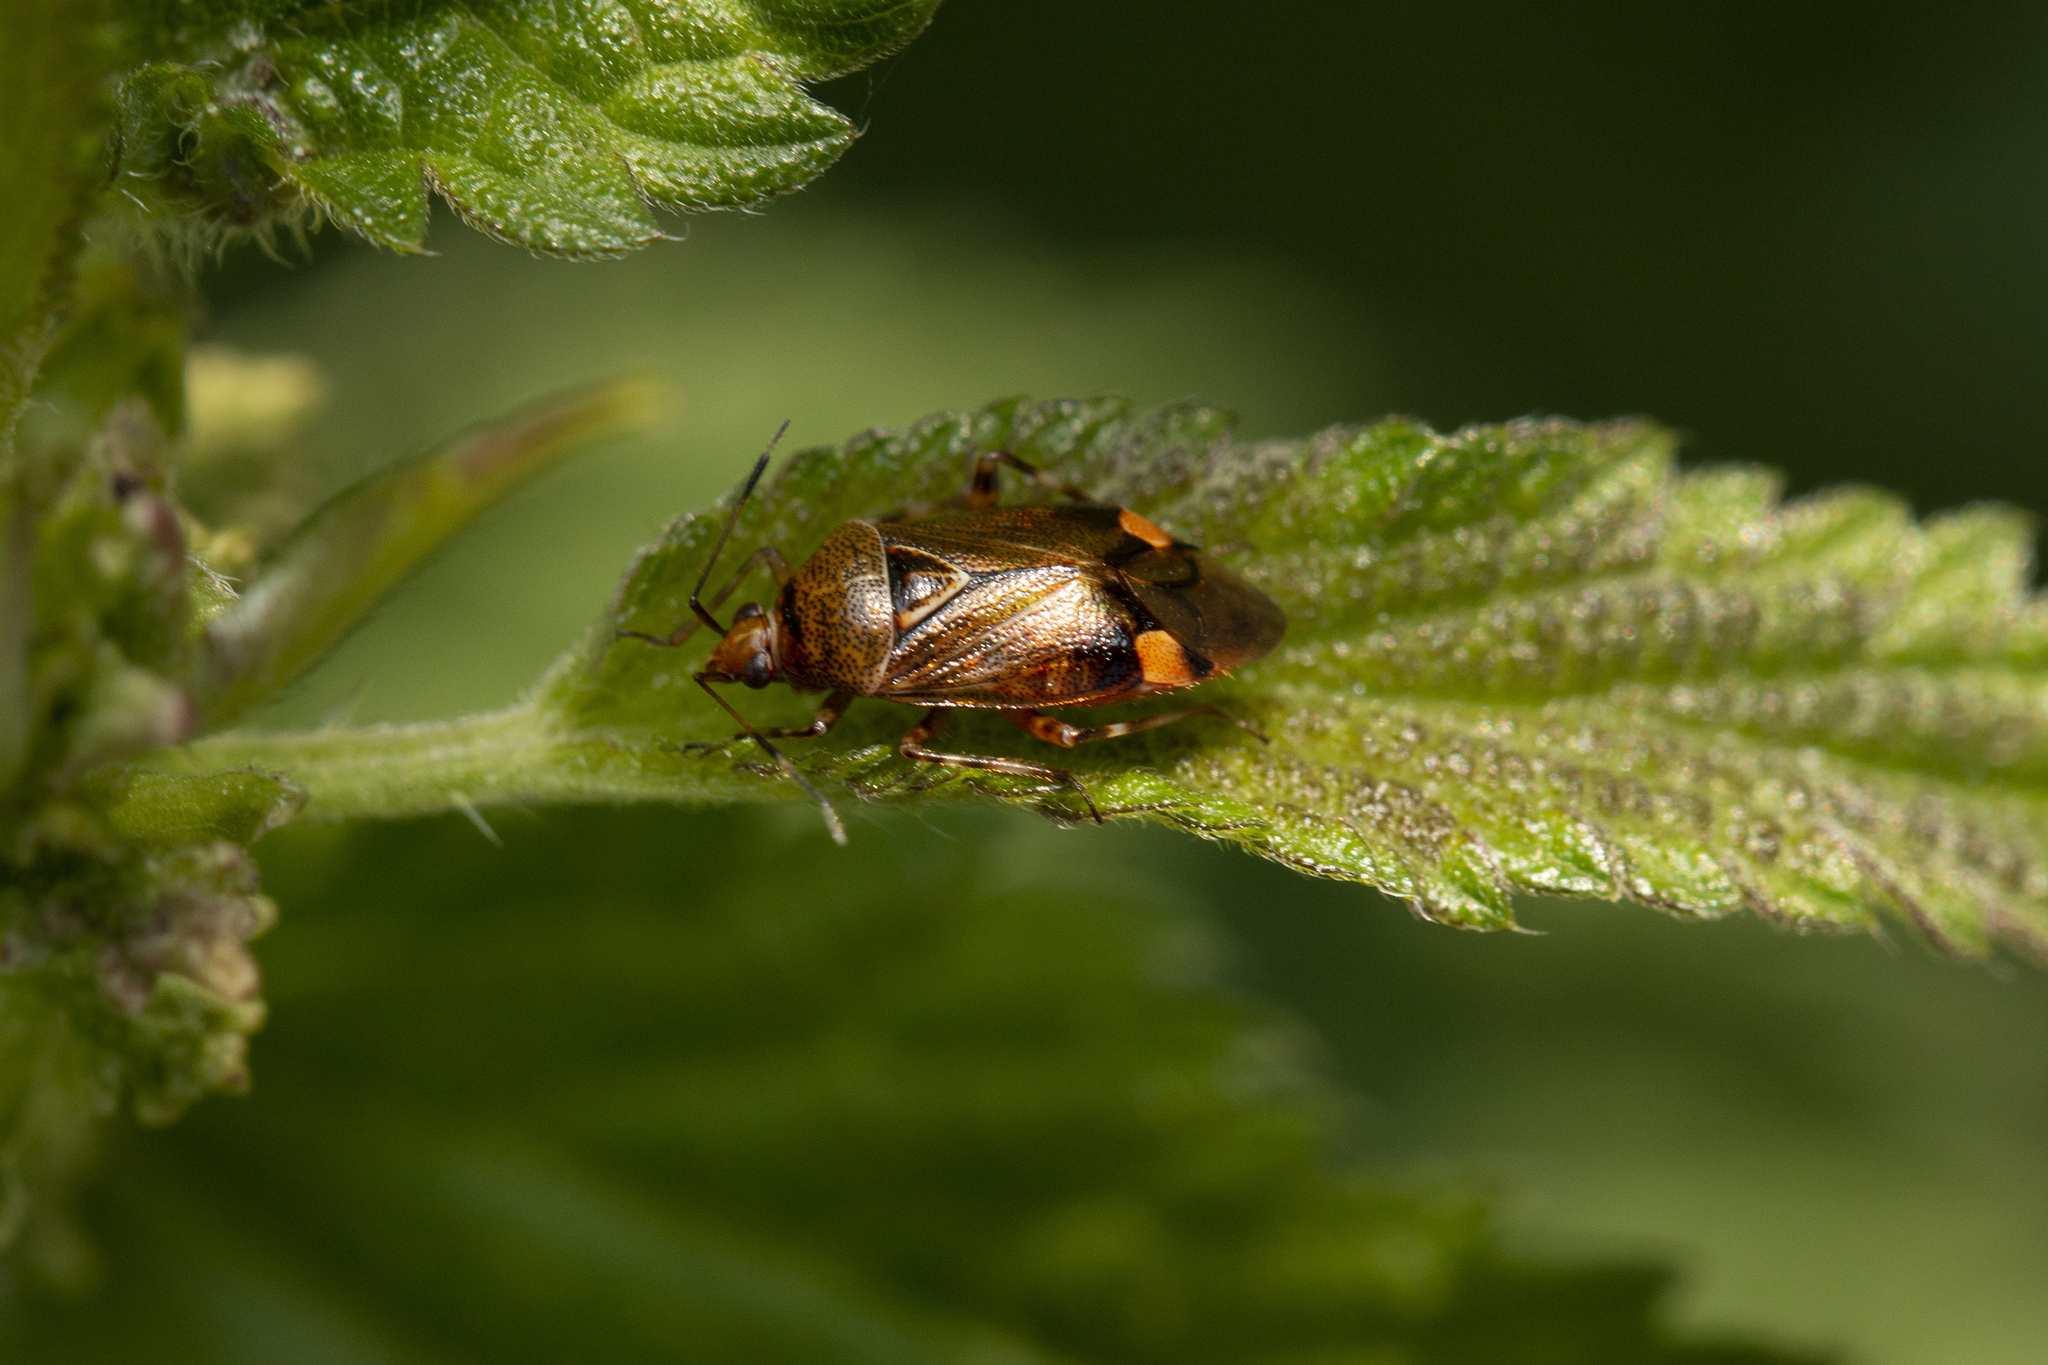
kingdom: Animalia
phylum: Arthropoda
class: Insecta
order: Hemiptera
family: Miridae
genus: Deraeocoris
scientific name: Deraeocoris flavilinea
